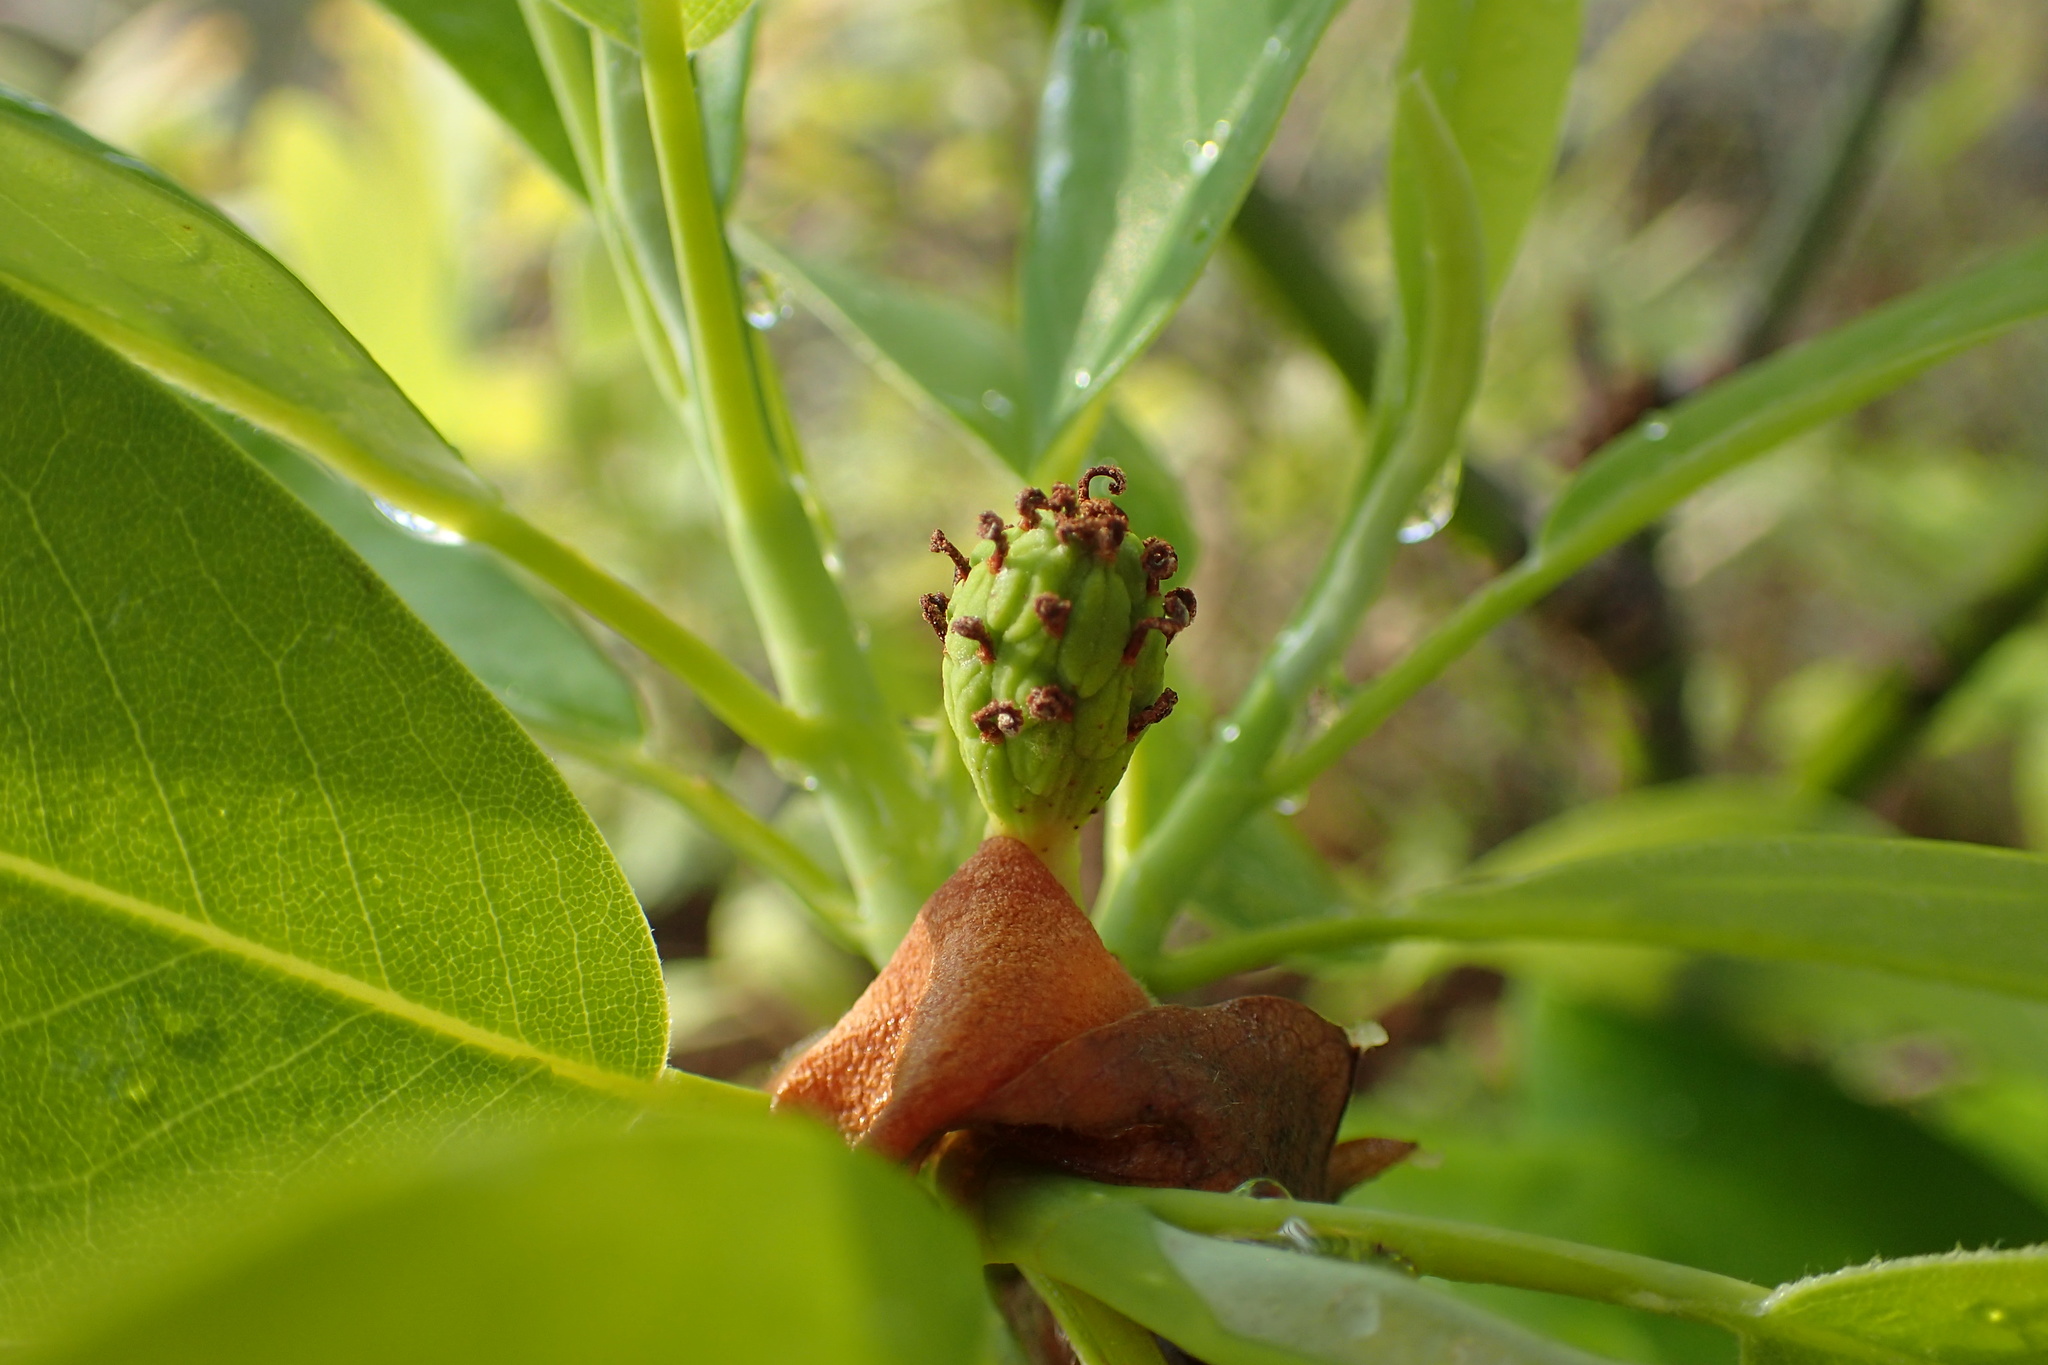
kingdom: Plantae
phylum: Tracheophyta
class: Magnoliopsida
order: Magnoliales
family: Magnoliaceae
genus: Magnolia
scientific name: Magnolia virginiana
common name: Swamp bay
